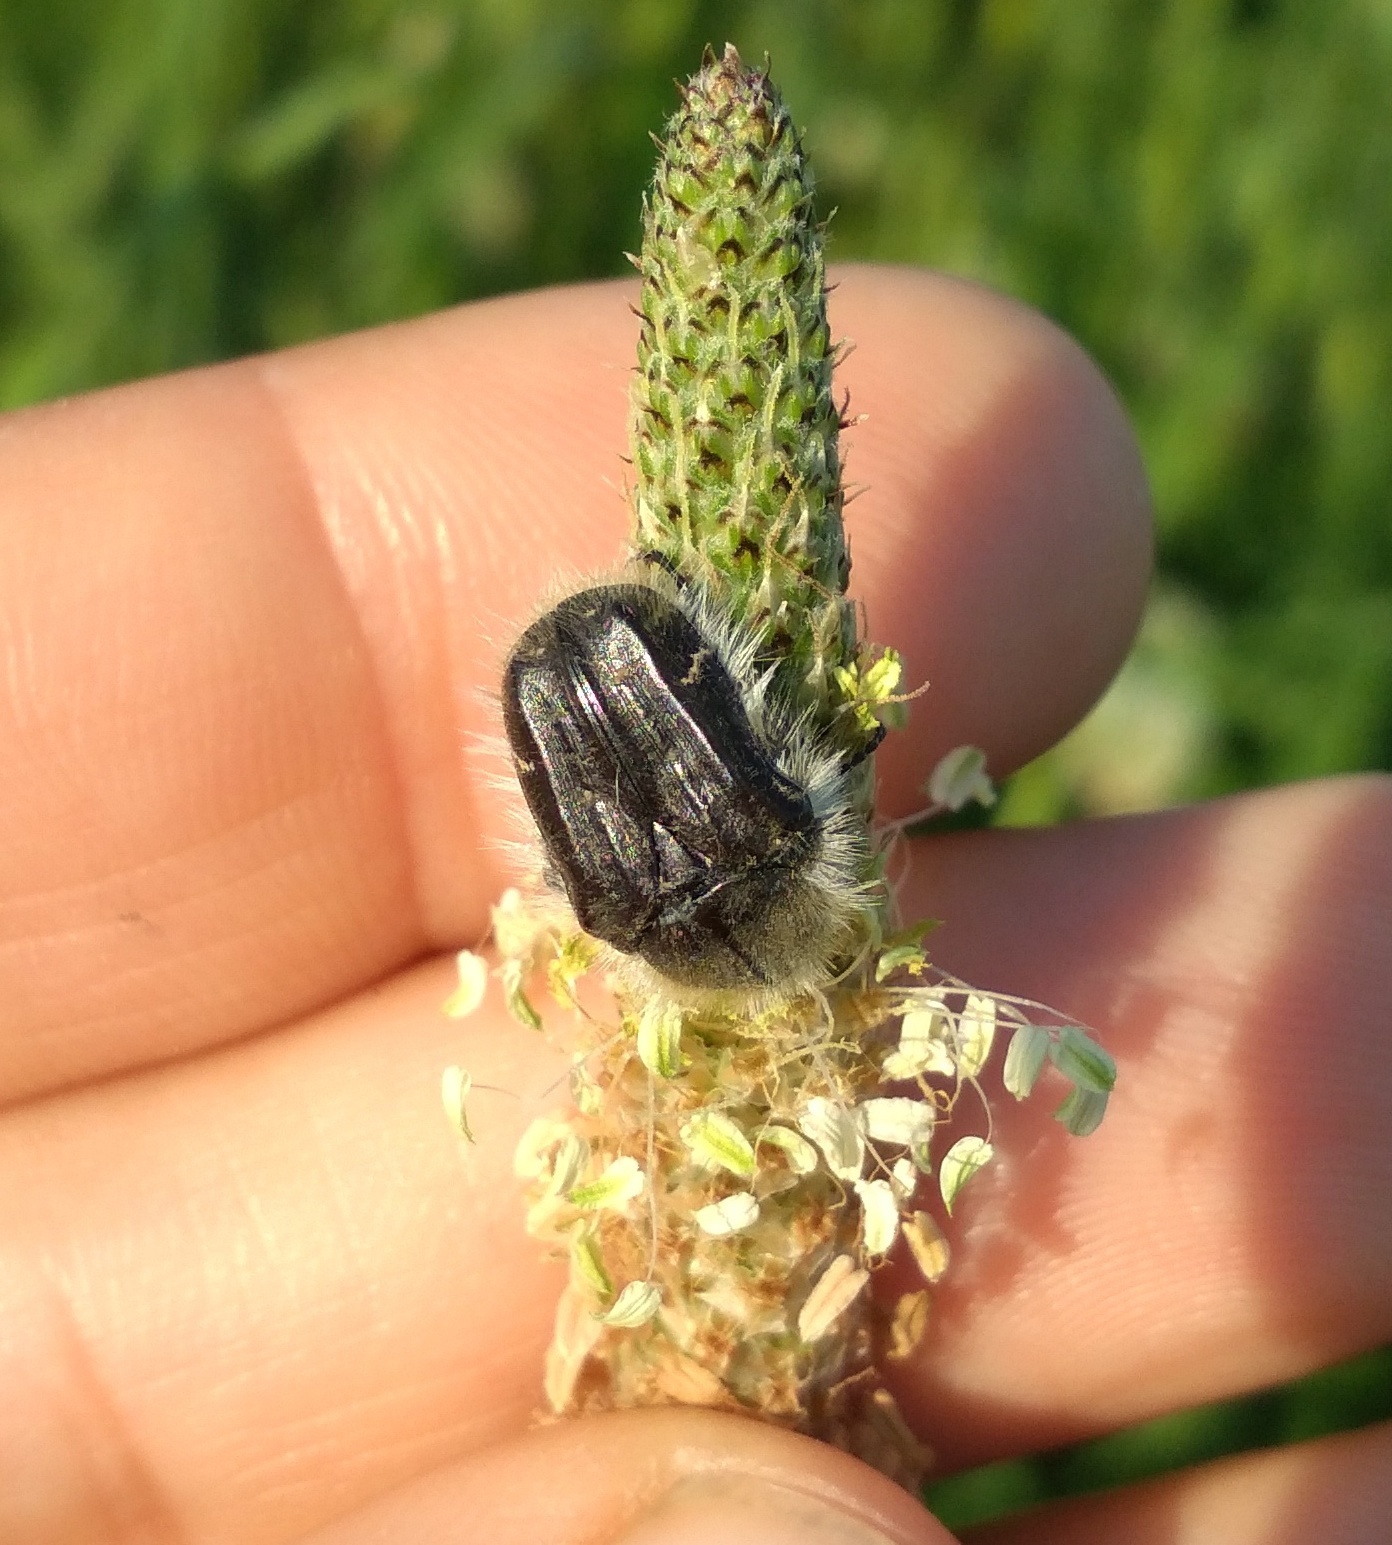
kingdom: Animalia
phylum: Arthropoda
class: Insecta
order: Coleoptera
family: Scarabaeidae
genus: Tropinota
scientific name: Tropinota squalida
